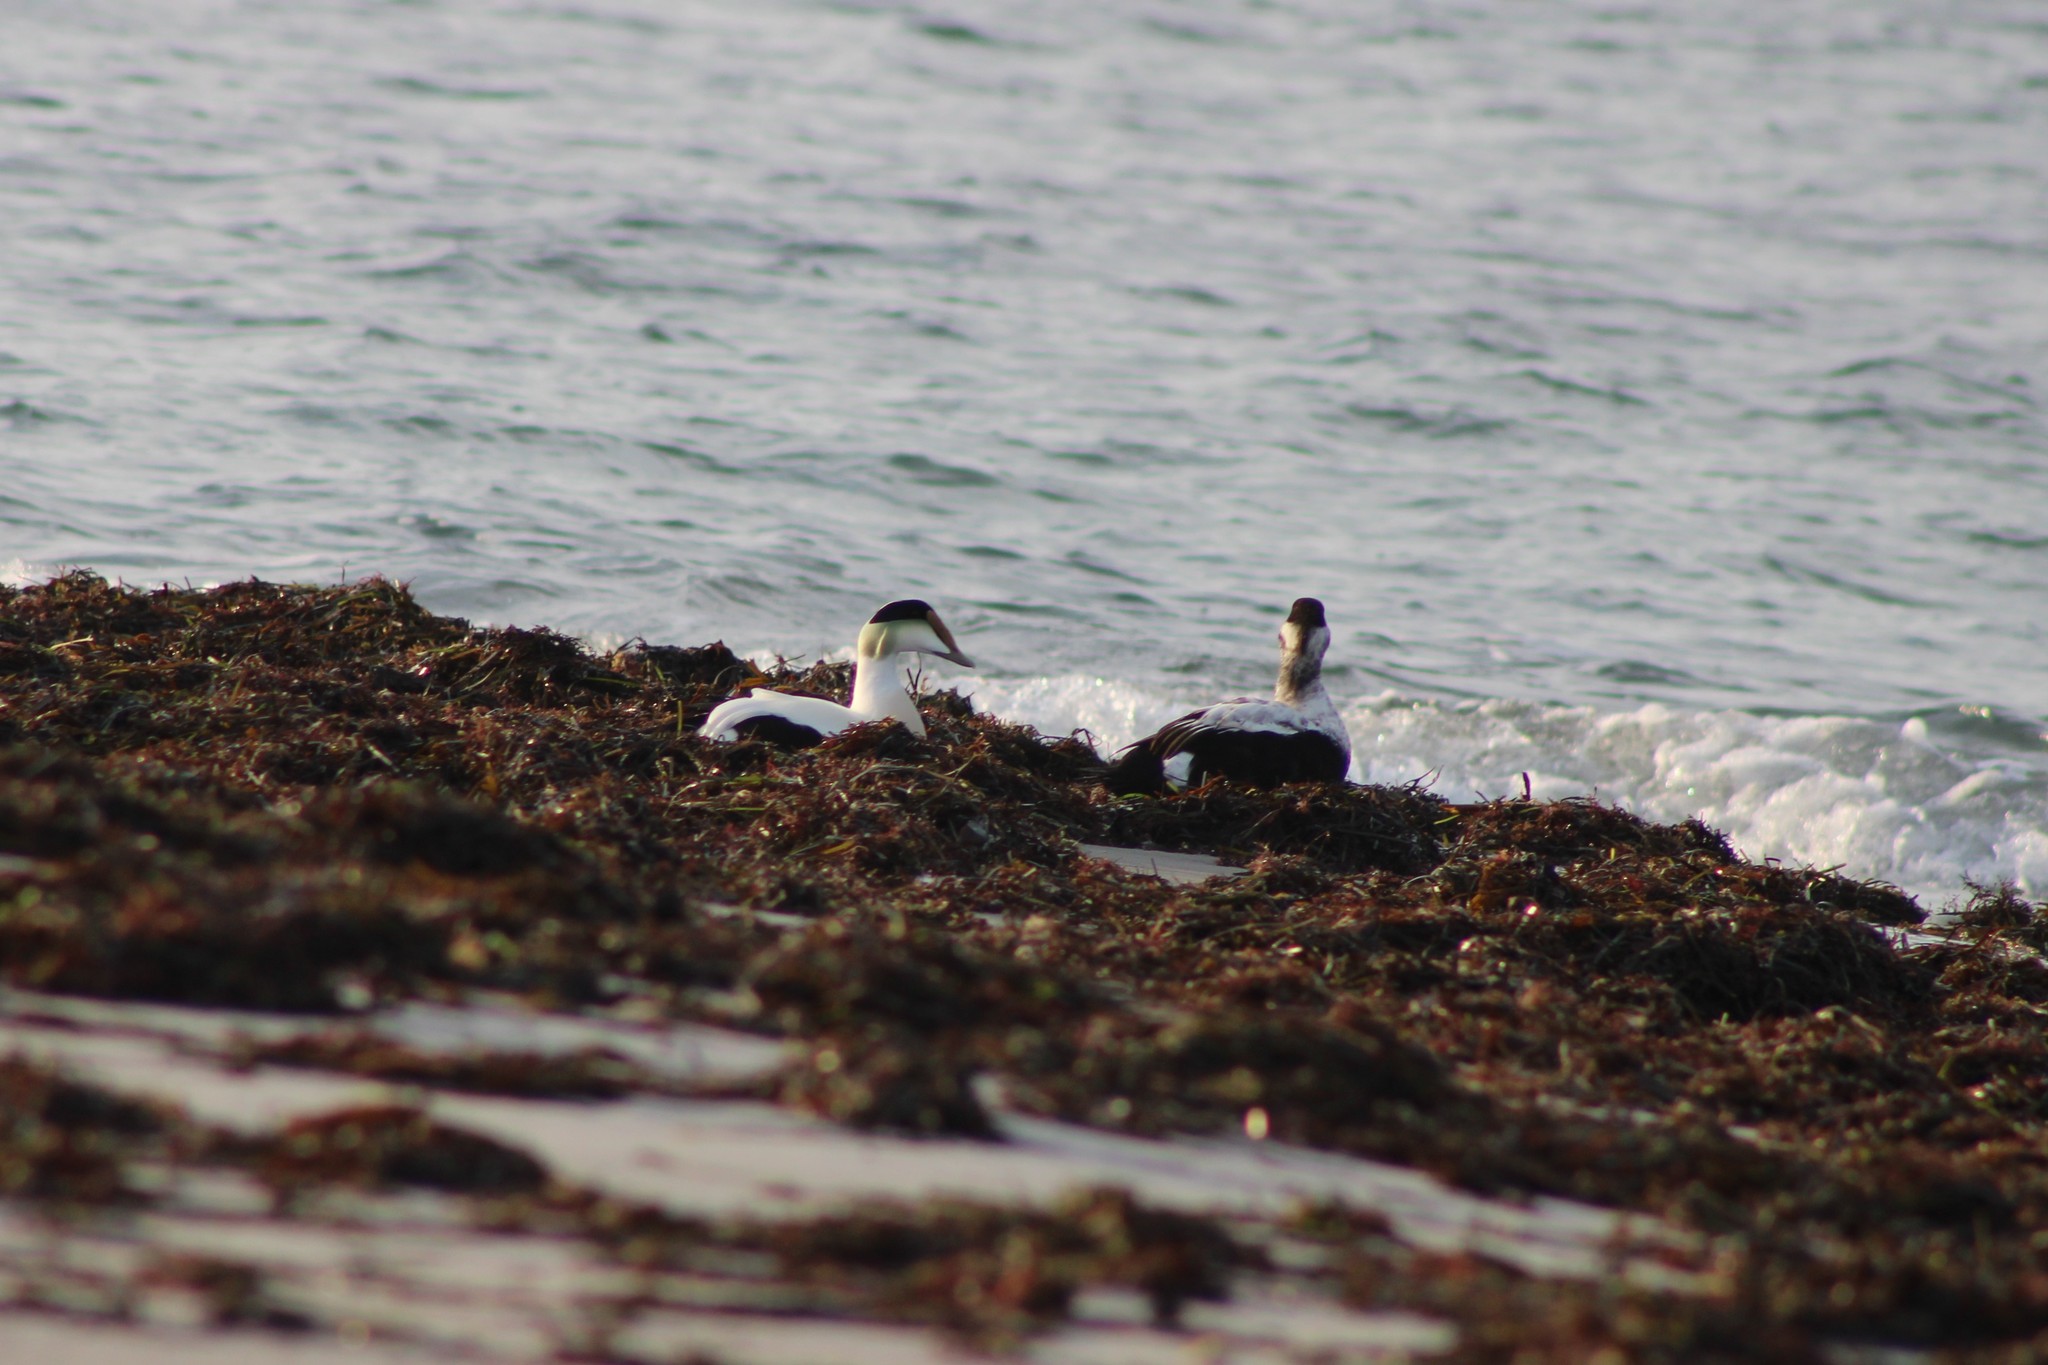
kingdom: Animalia
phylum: Chordata
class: Aves
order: Anseriformes
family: Anatidae
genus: Somateria
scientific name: Somateria mollissima
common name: Common eider
